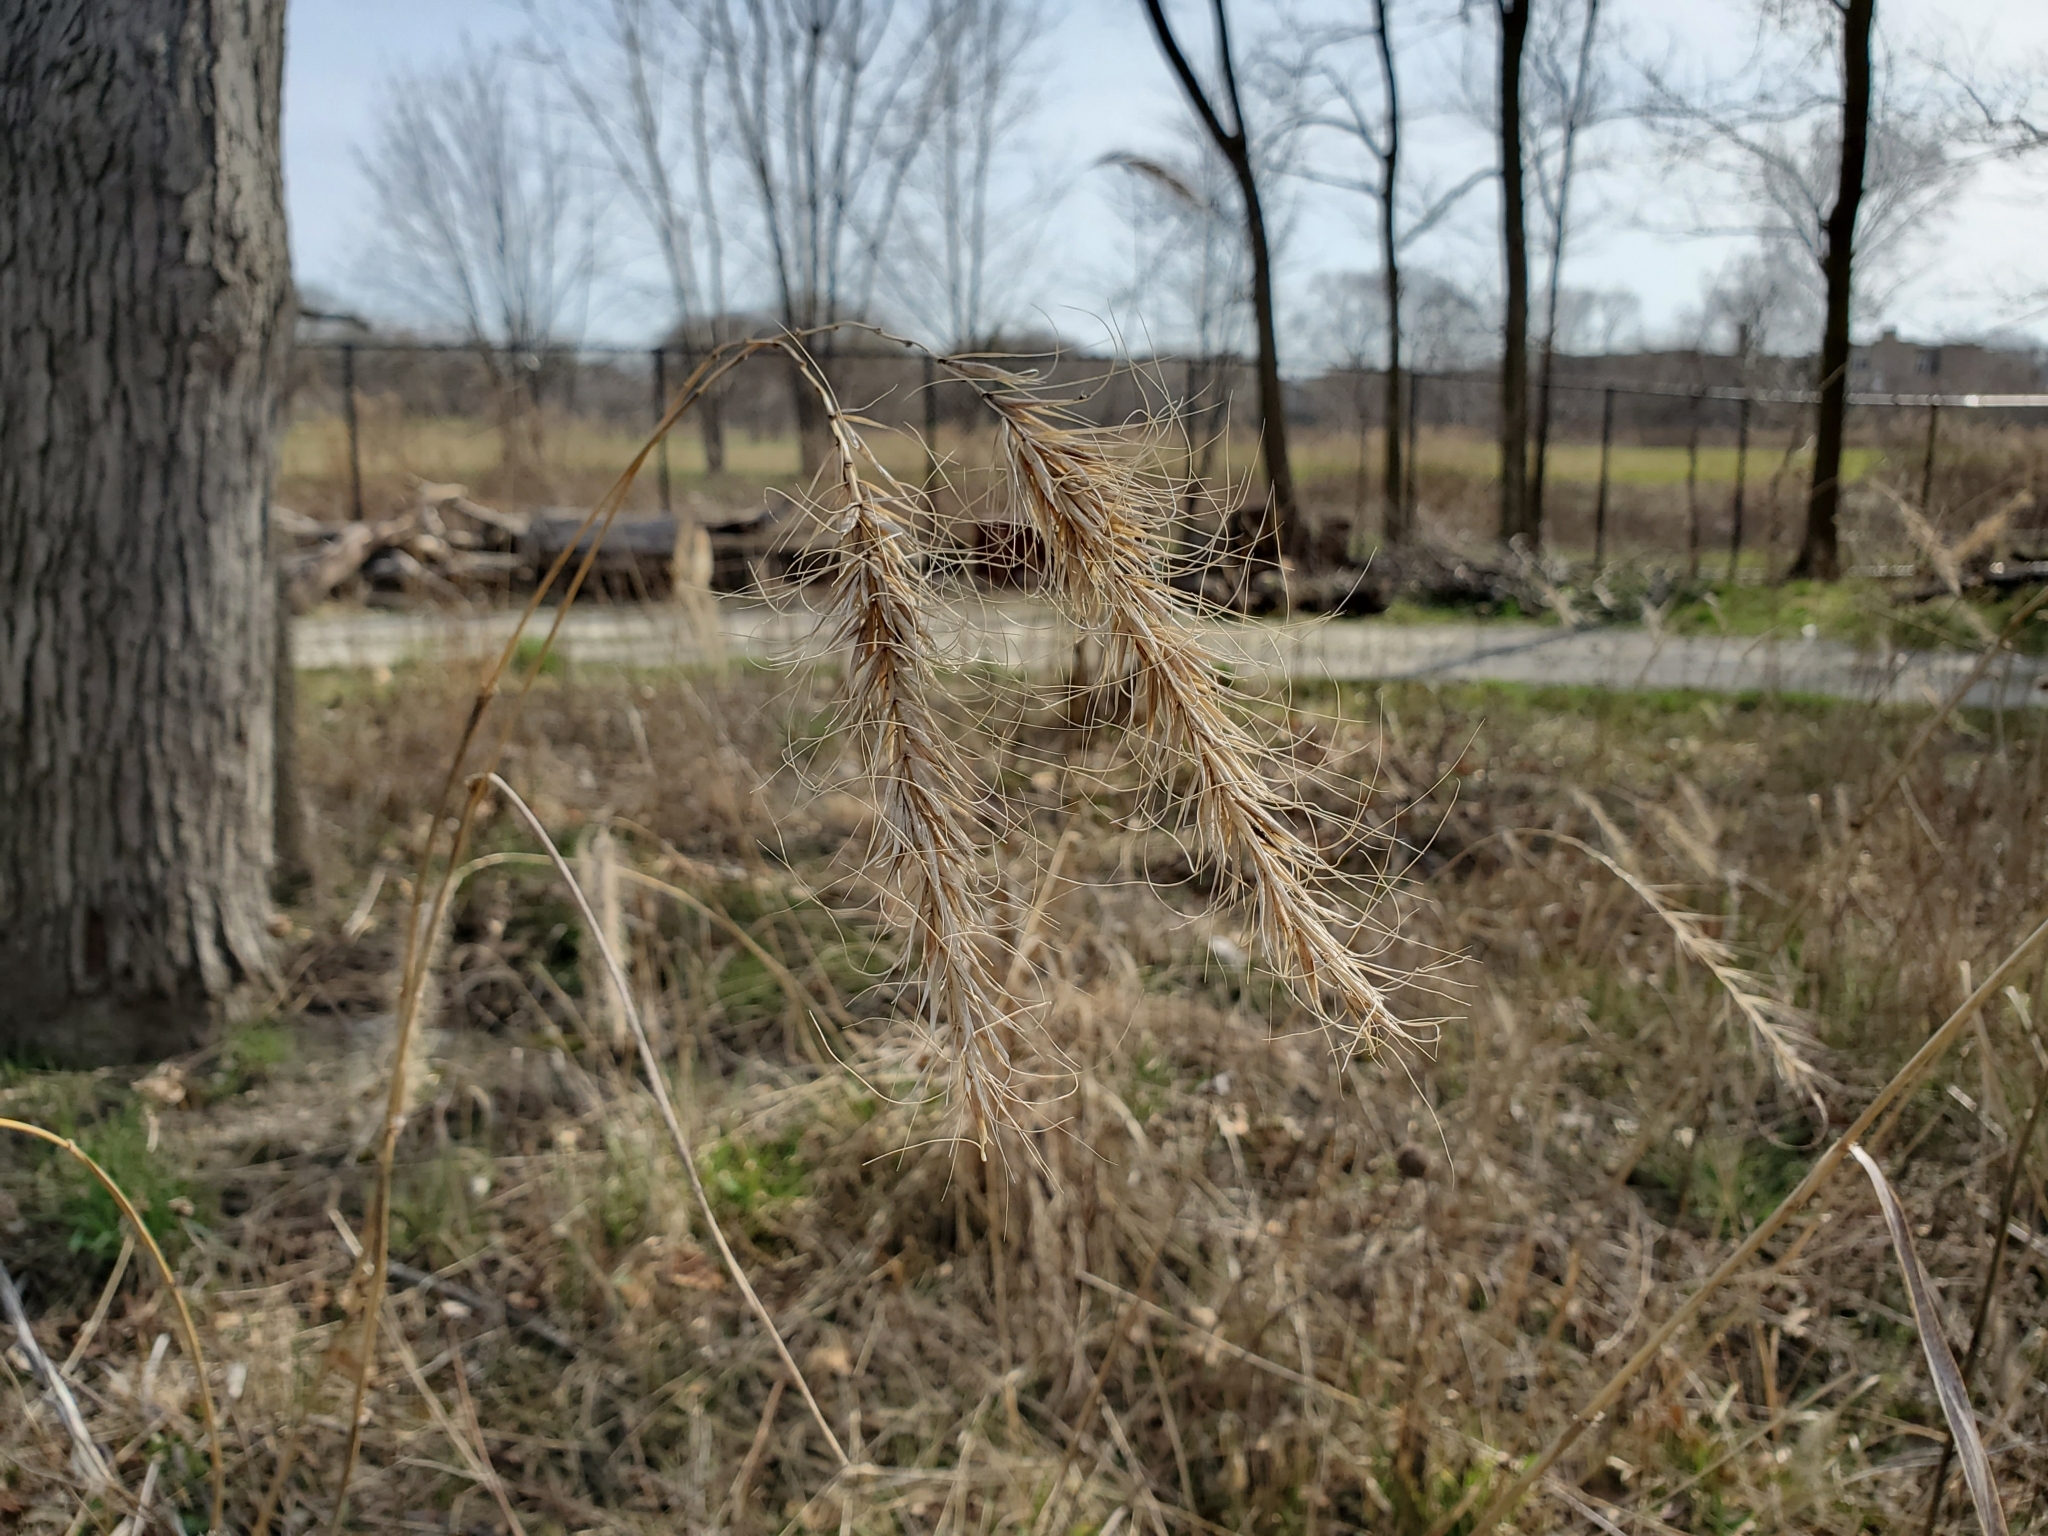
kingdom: Plantae
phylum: Tracheophyta
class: Liliopsida
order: Poales
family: Poaceae
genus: Elymus
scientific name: Elymus canadensis
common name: Canada wild rye
